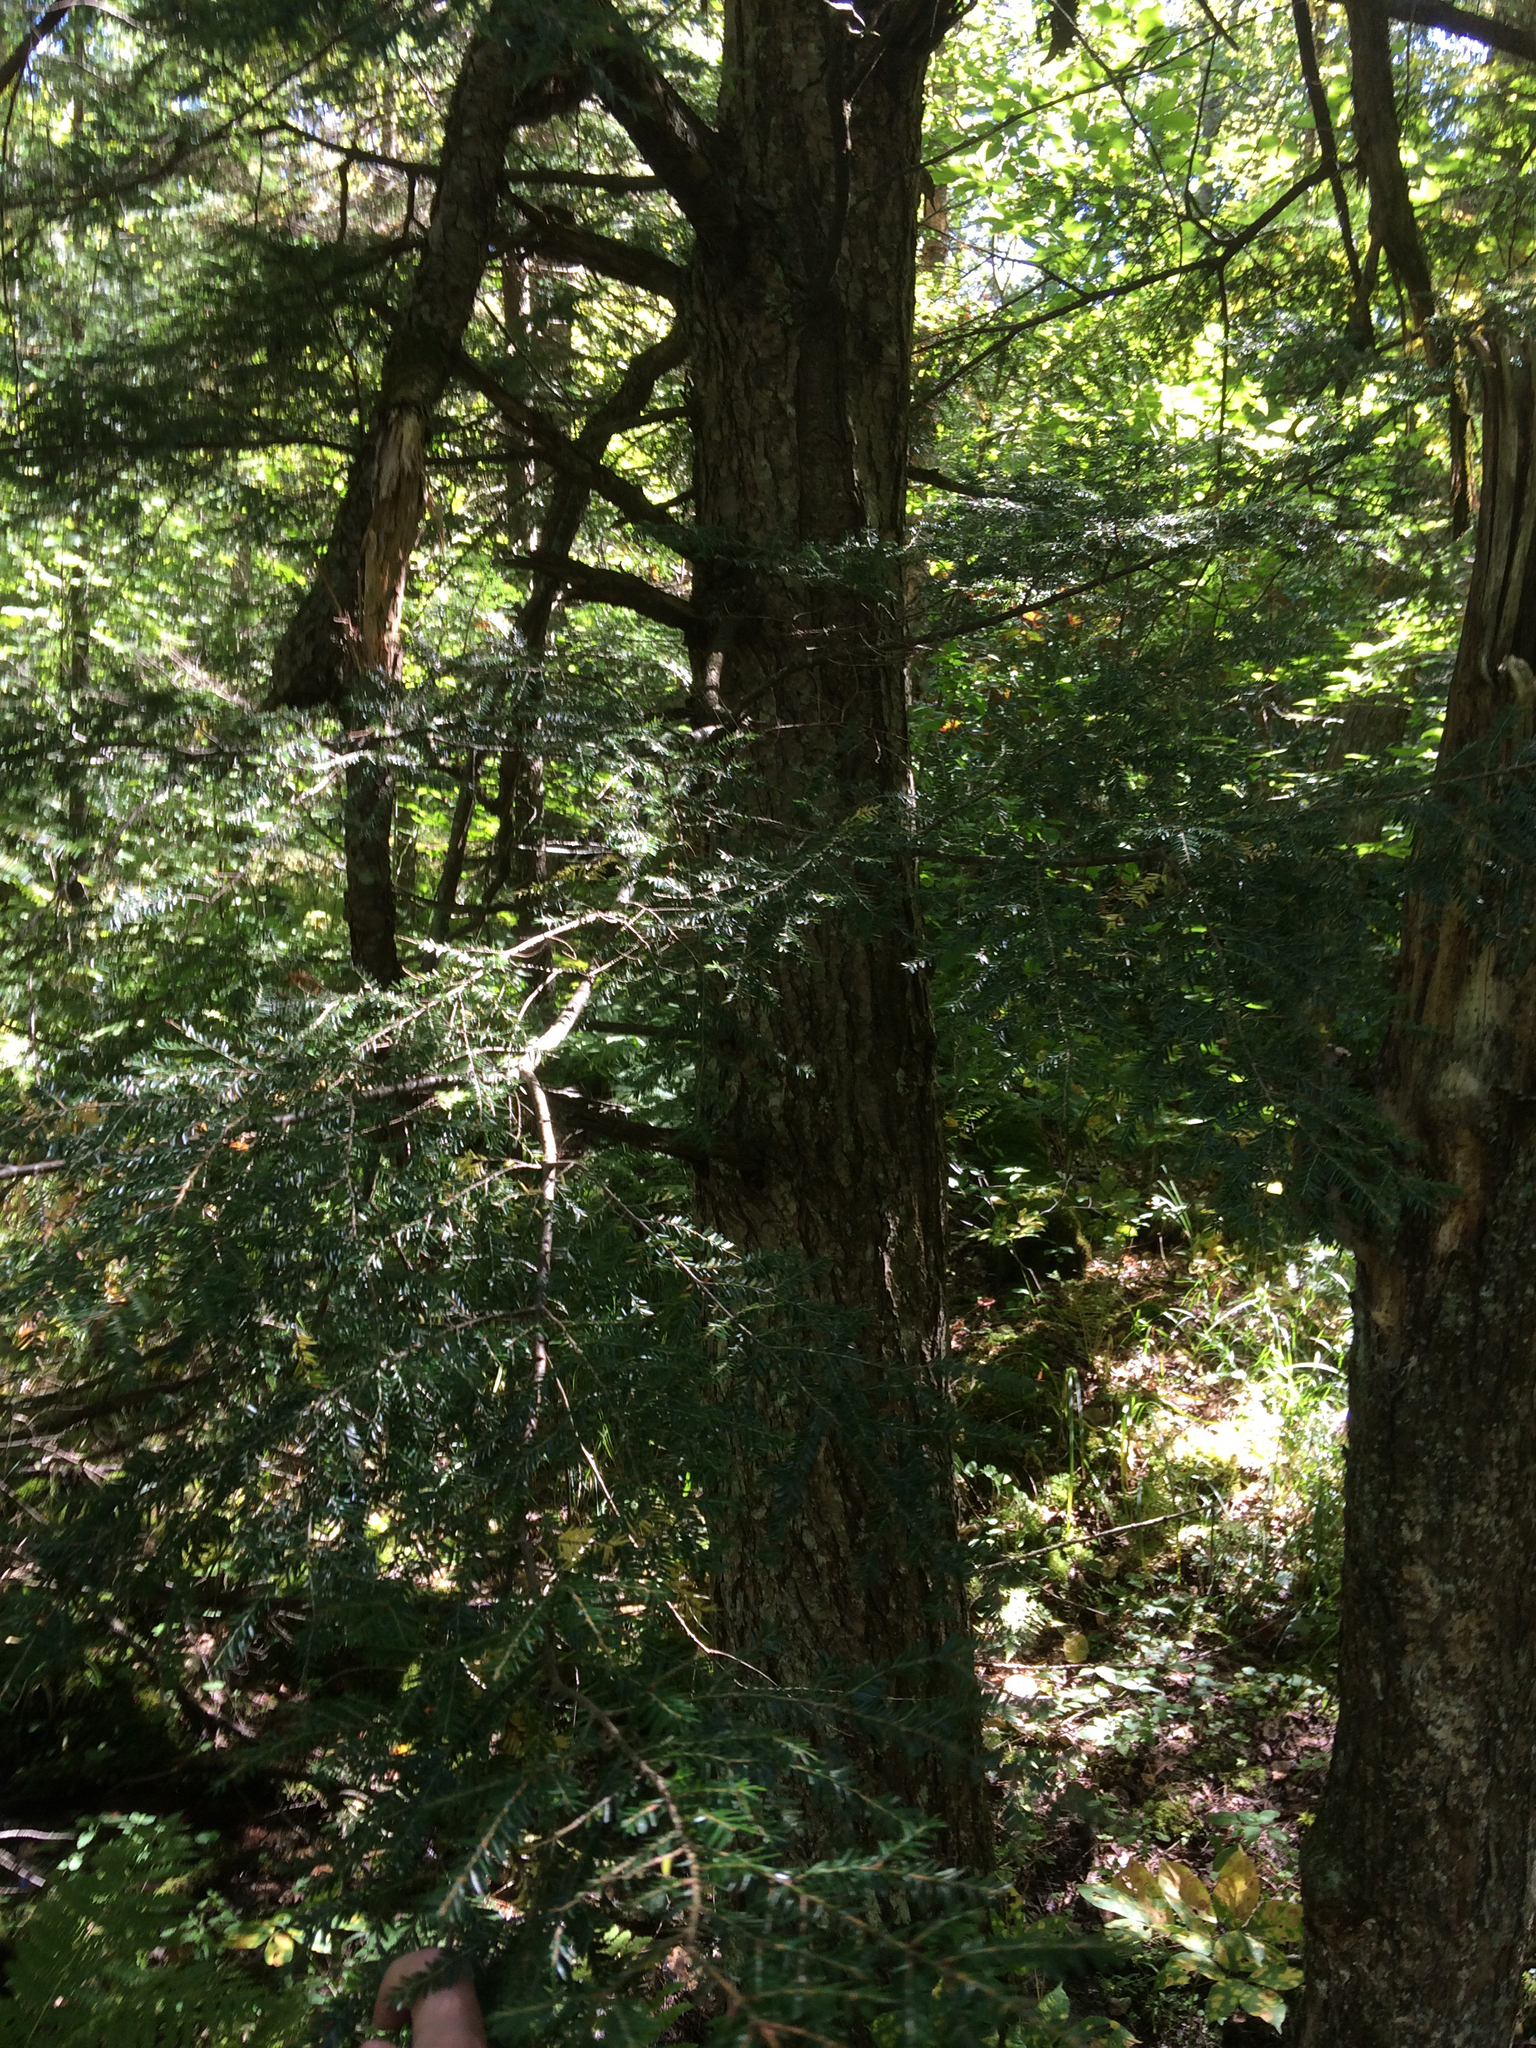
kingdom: Plantae
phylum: Tracheophyta
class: Pinopsida
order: Pinales
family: Pinaceae
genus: Tsuga
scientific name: Tsuga canadensis
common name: Eastern hemlock
